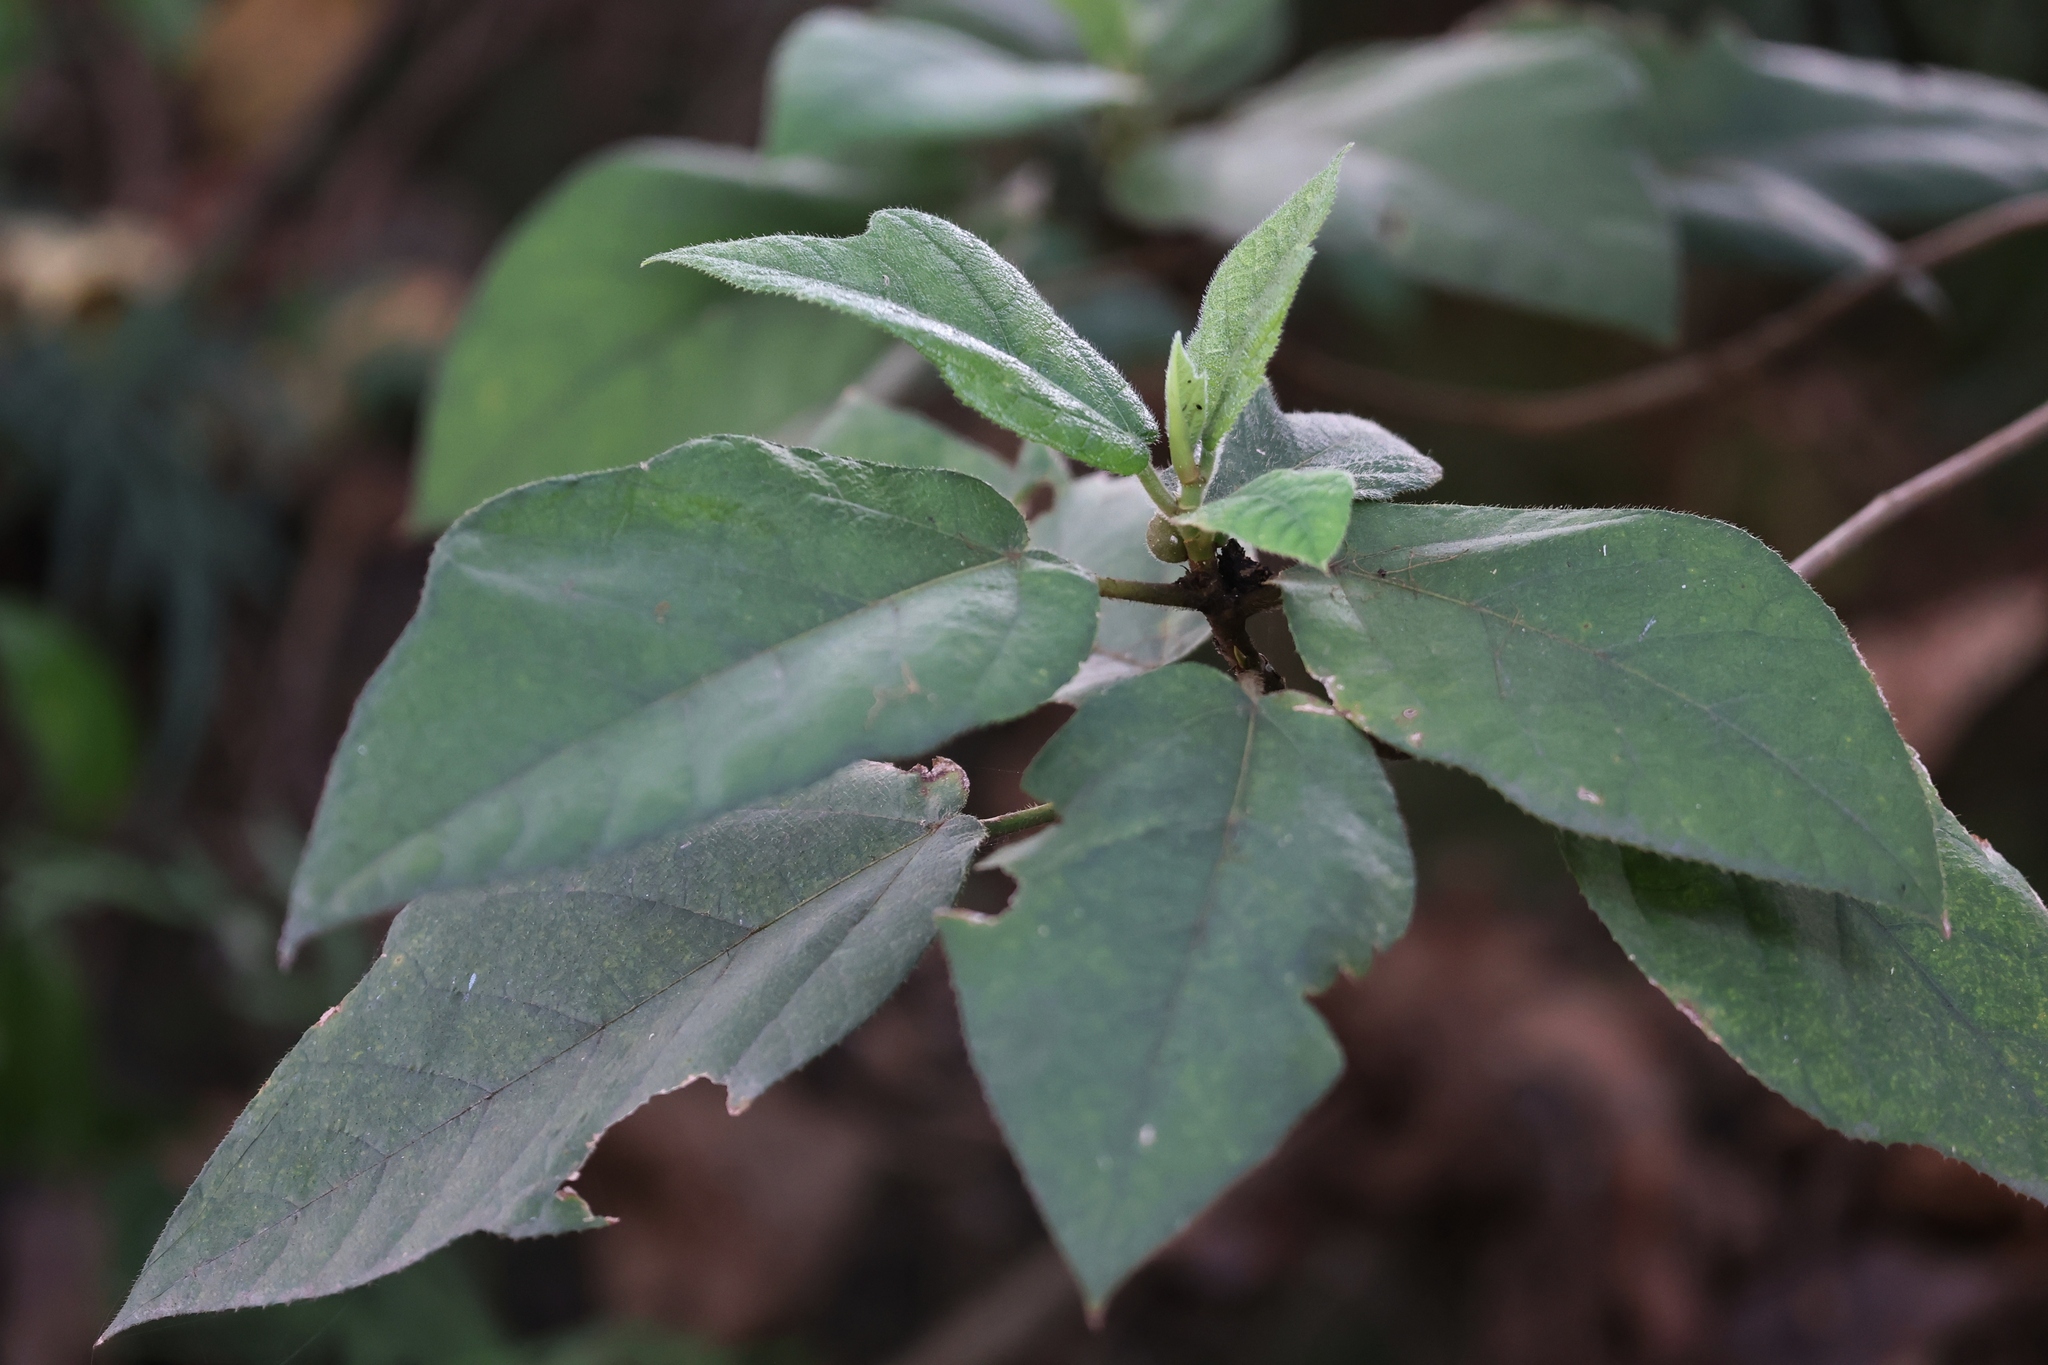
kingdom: Plantae
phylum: Tracheophyta
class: Magnoliopsida
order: Rosales
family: Moraceae
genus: Ficus
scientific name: Ficus simplicissima
